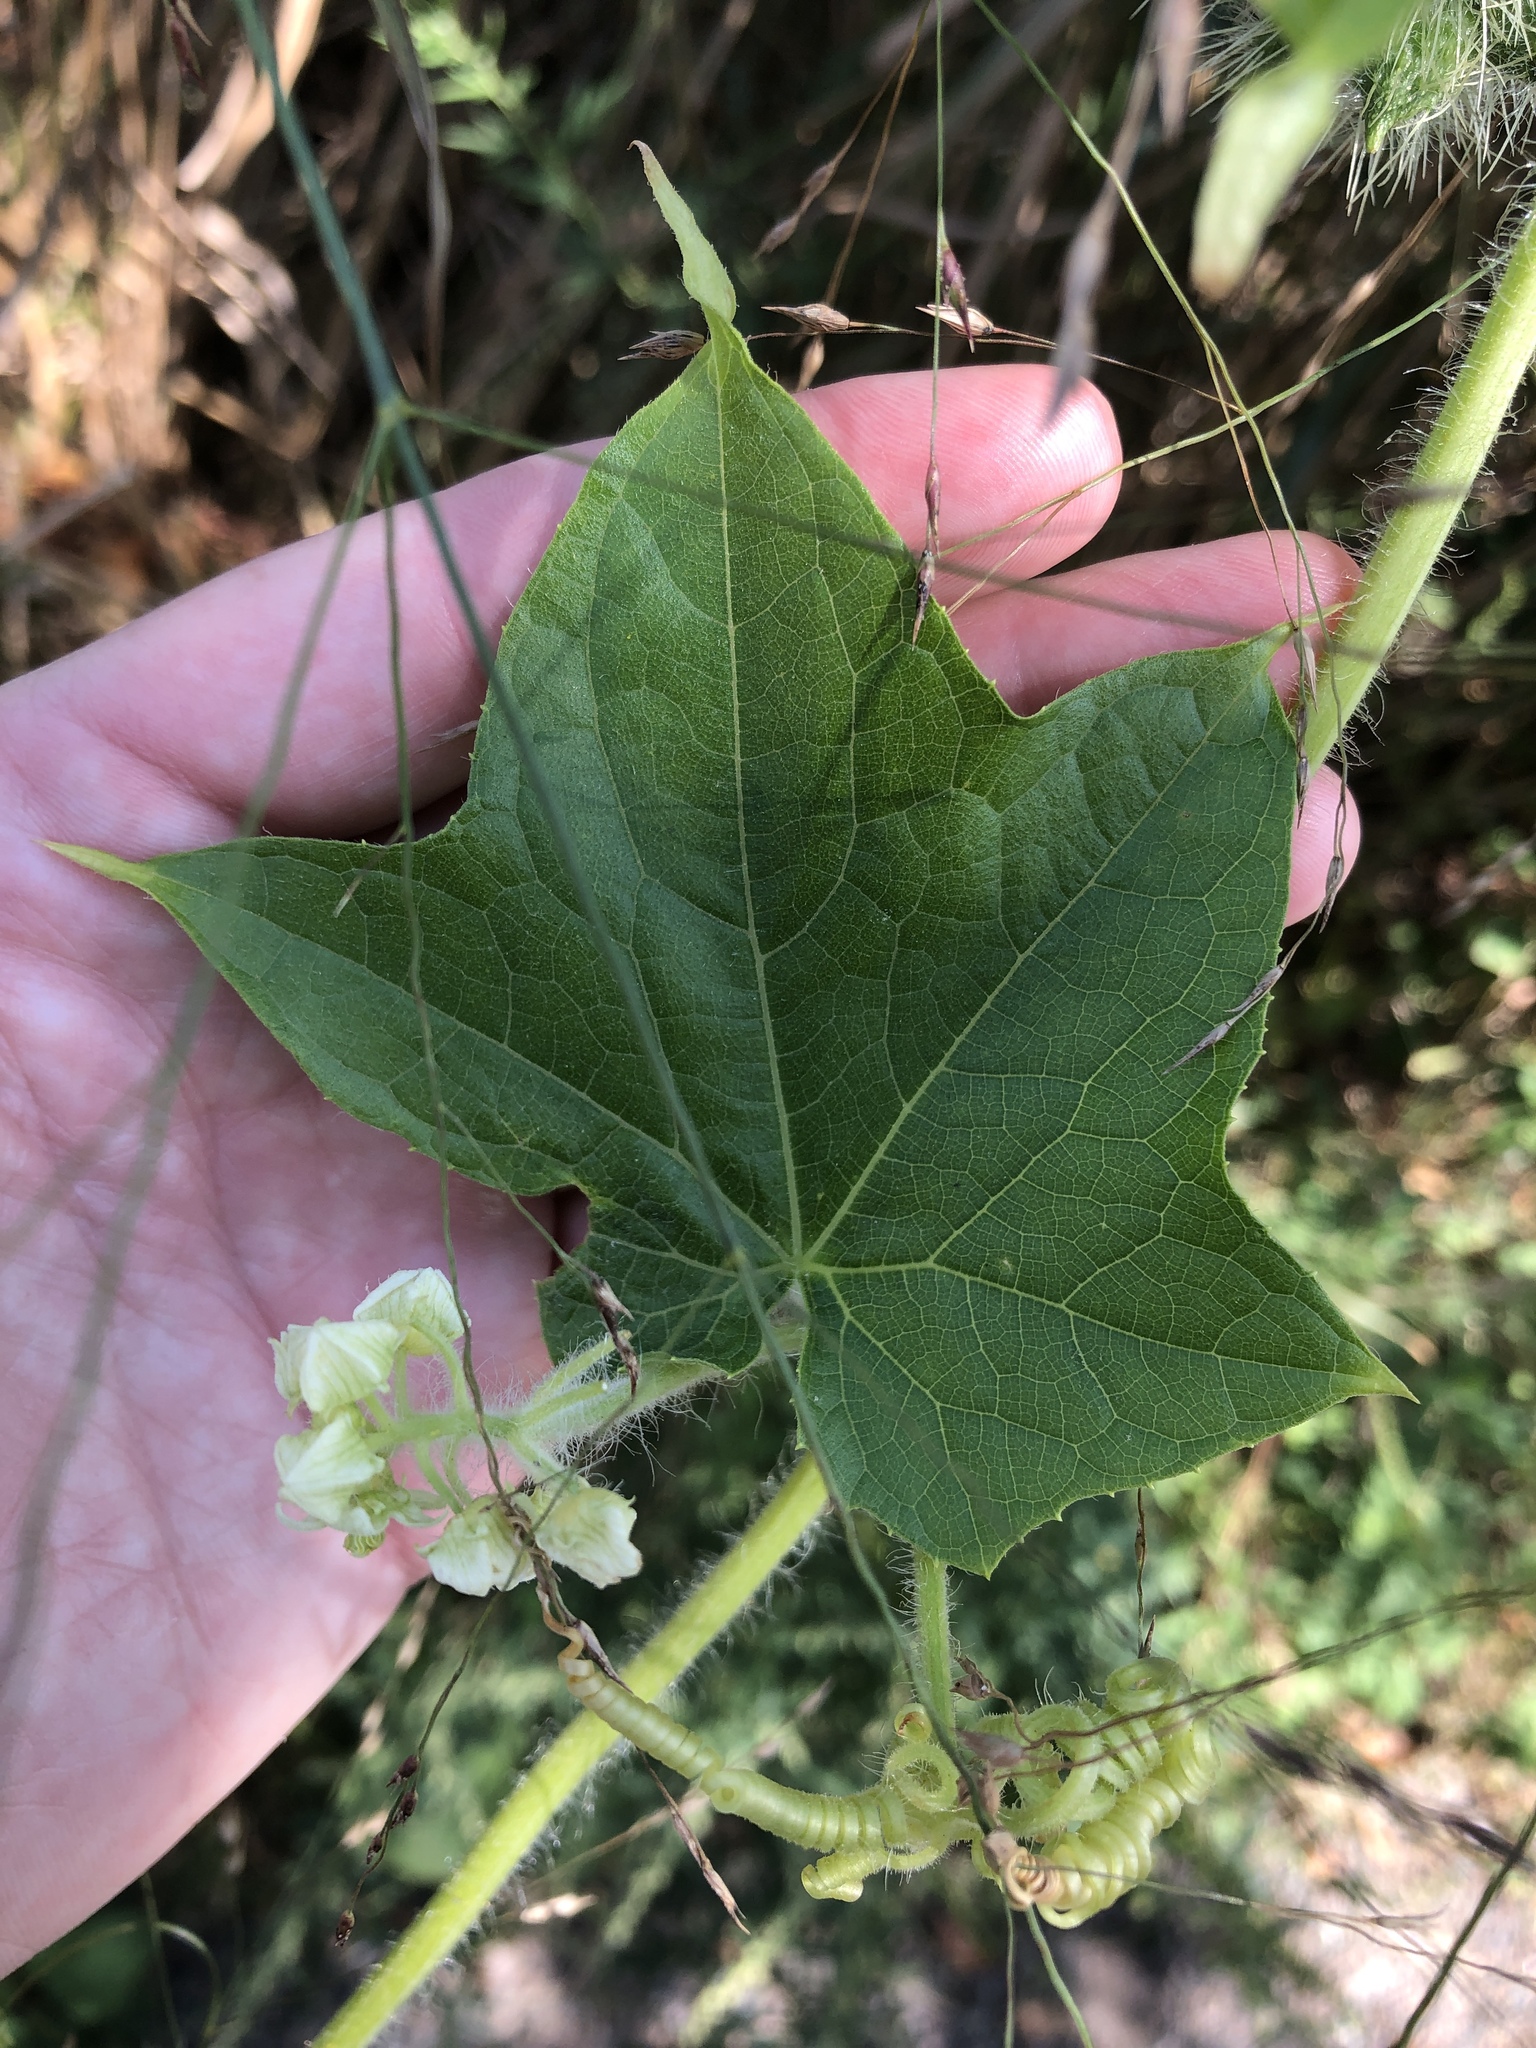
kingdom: Plantae
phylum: Tracheophyta
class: Magnoliopsida
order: Cucurbitales
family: Cucurbitaceae
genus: Sicyos
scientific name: Sicyos angulatus
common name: Angled burr cucumber
